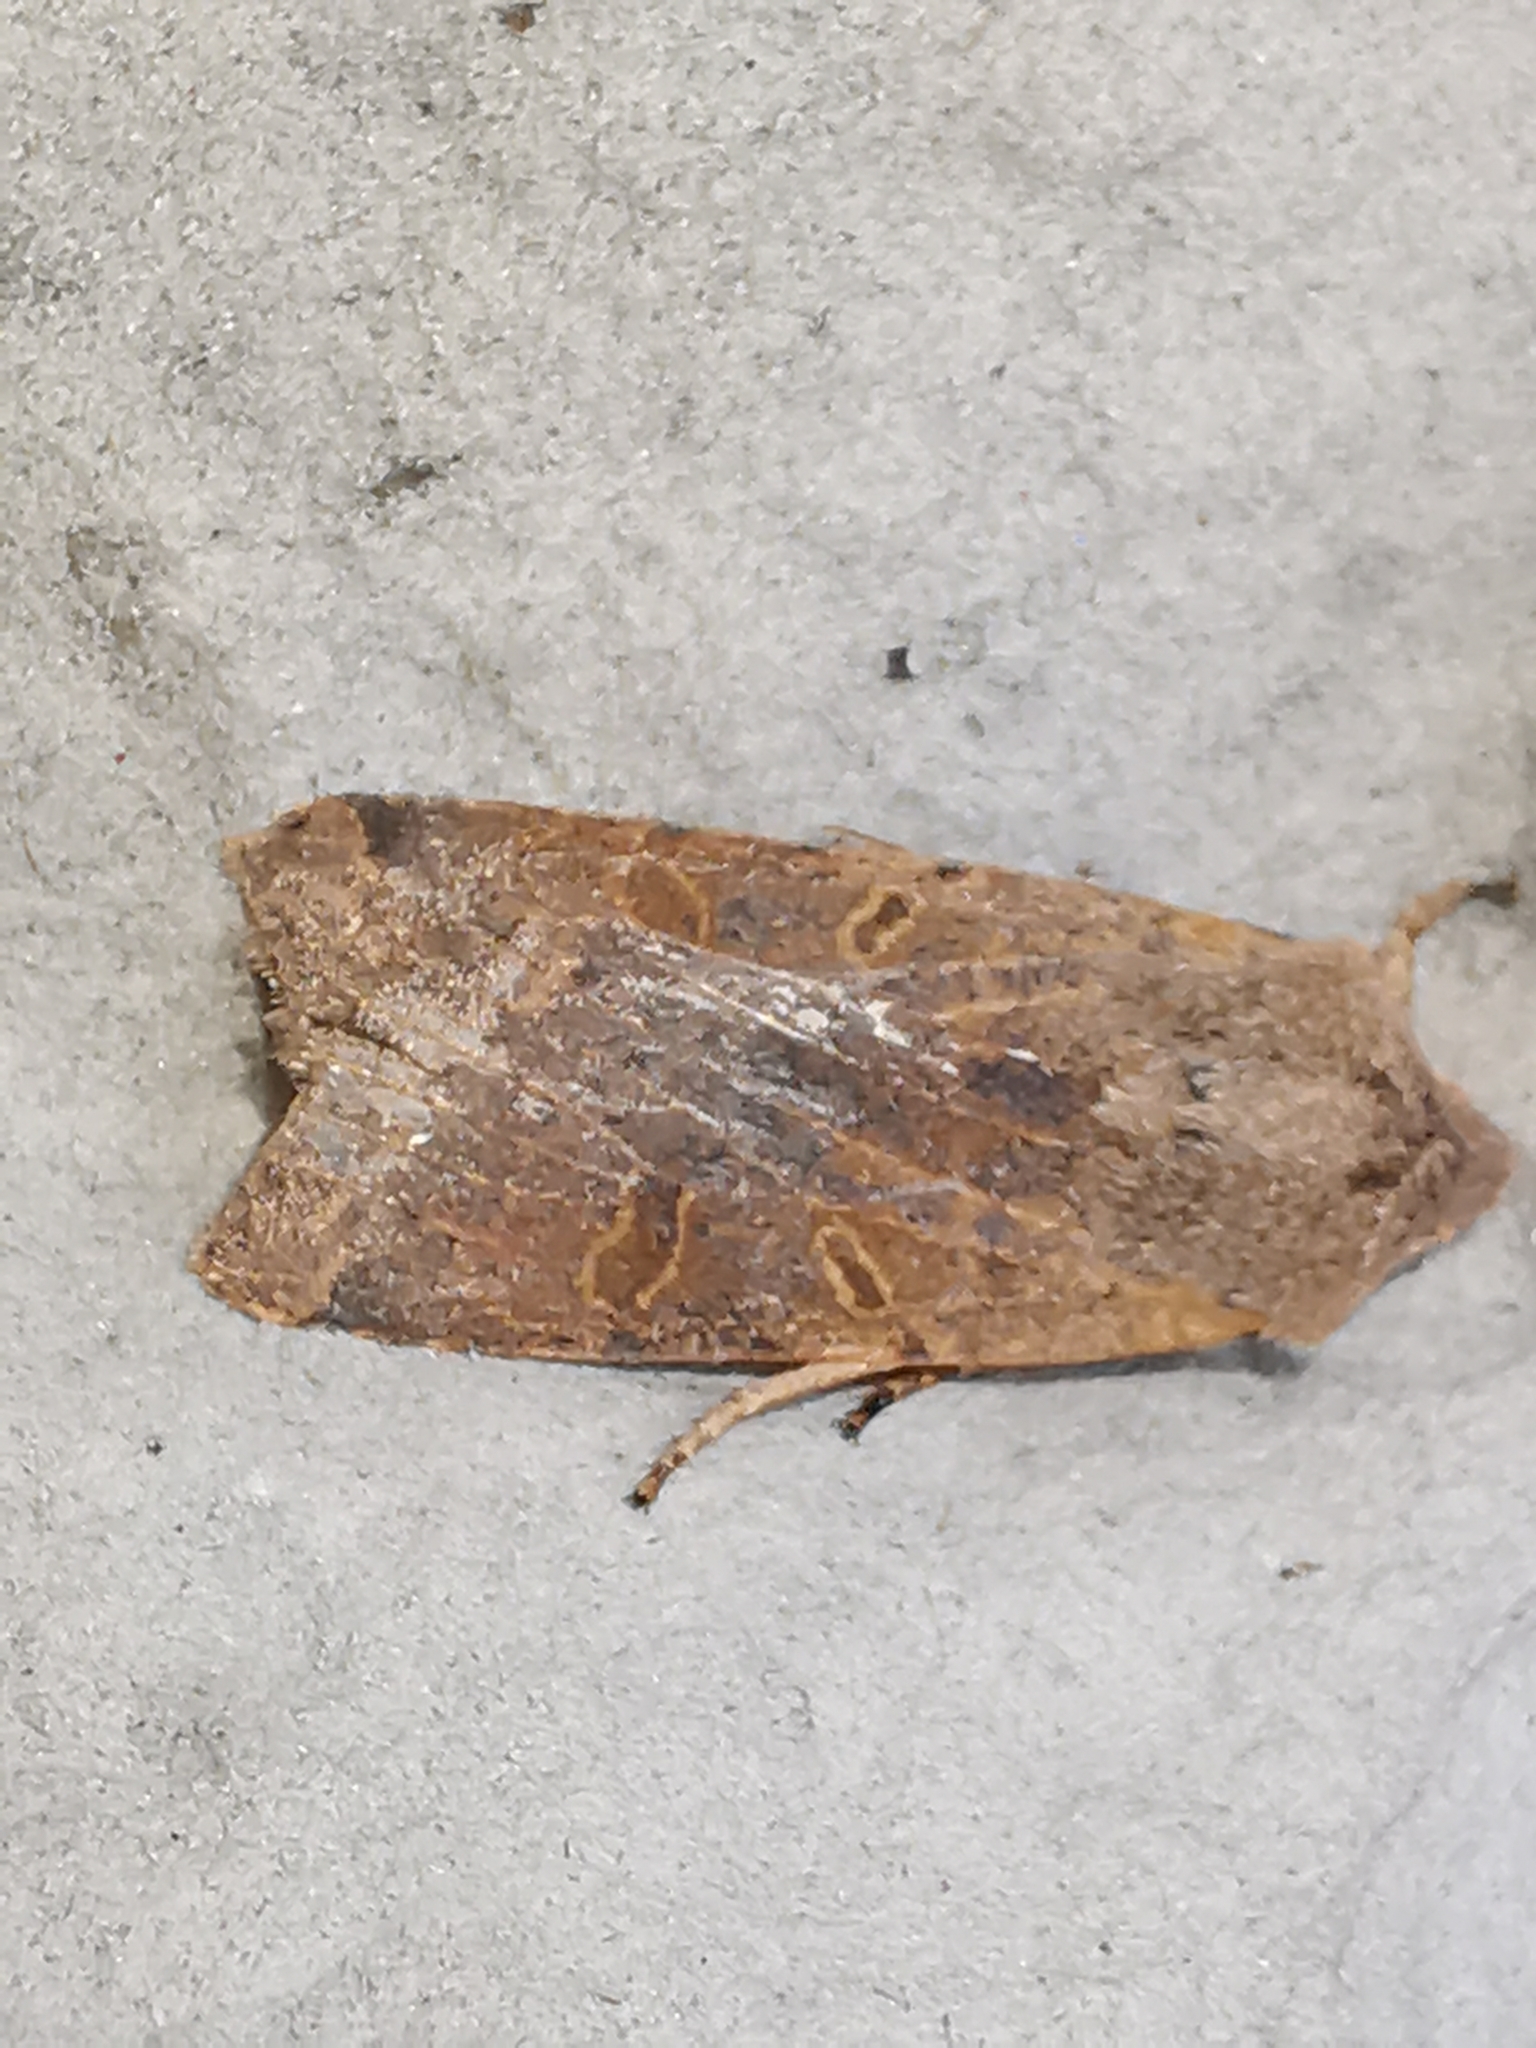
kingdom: Animalia
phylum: Arthropoda
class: Insecta
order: Lepidoptera
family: Noctuidae
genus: Agrochola
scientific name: Agrochola lychnidis
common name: Beaded chestnut
